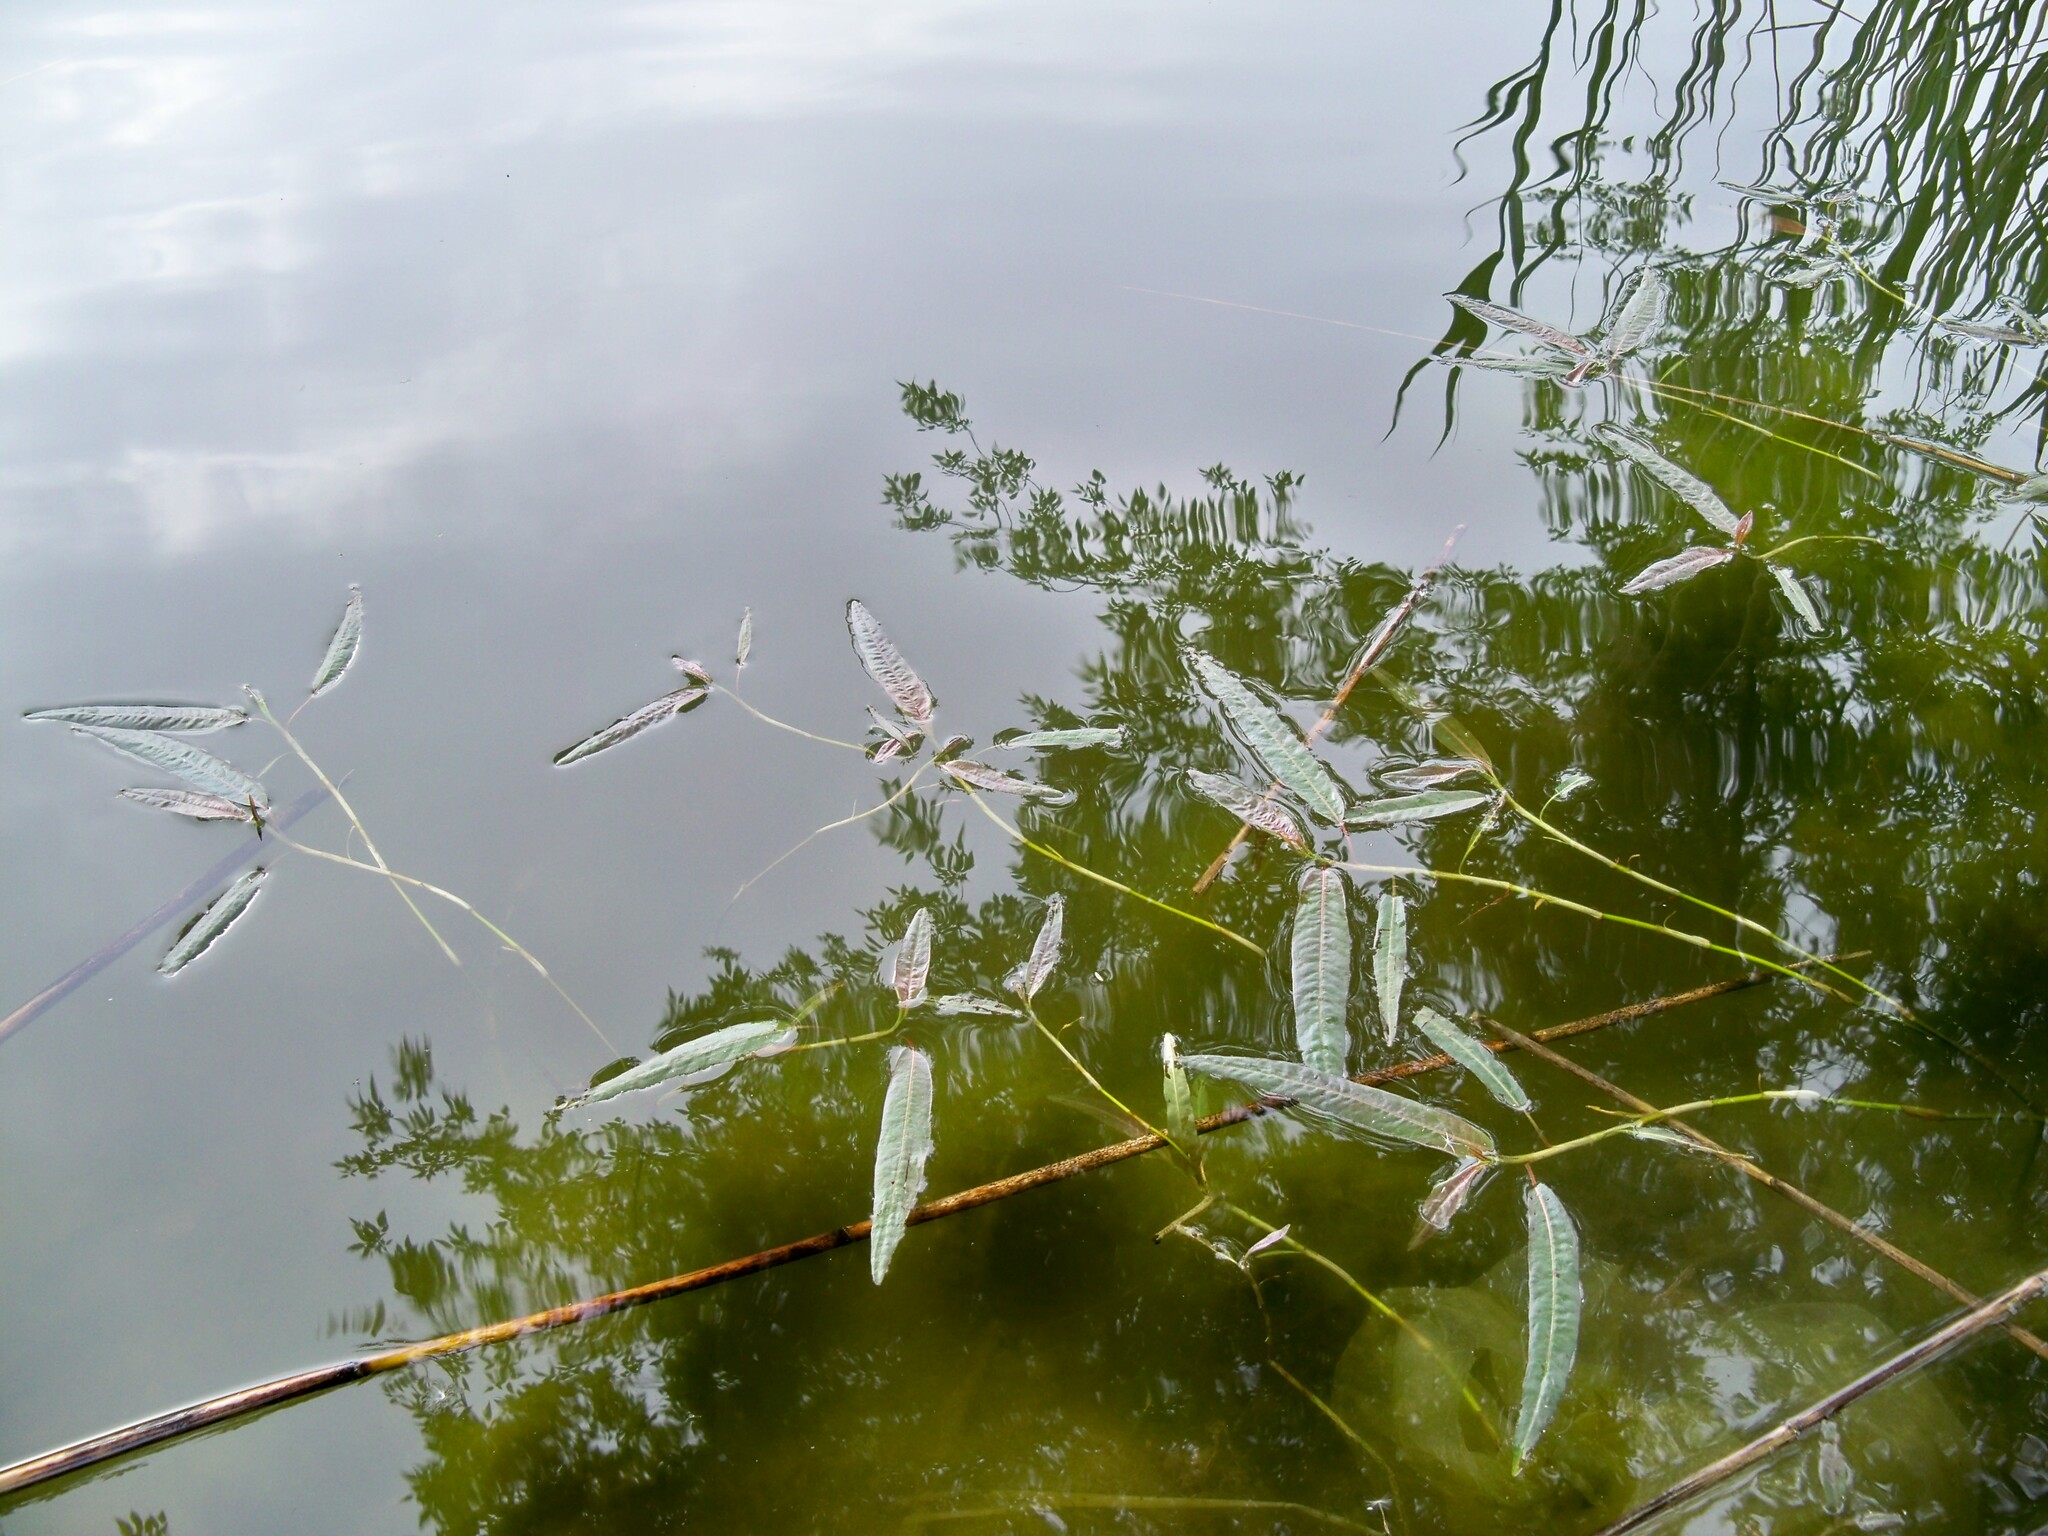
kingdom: Plantae
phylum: Tracheophyta
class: Magnoliopsida
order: Caryophyllales
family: Polygonaceae
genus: Persicaria
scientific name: Persicaria amphibia
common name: Amphibious bistort
